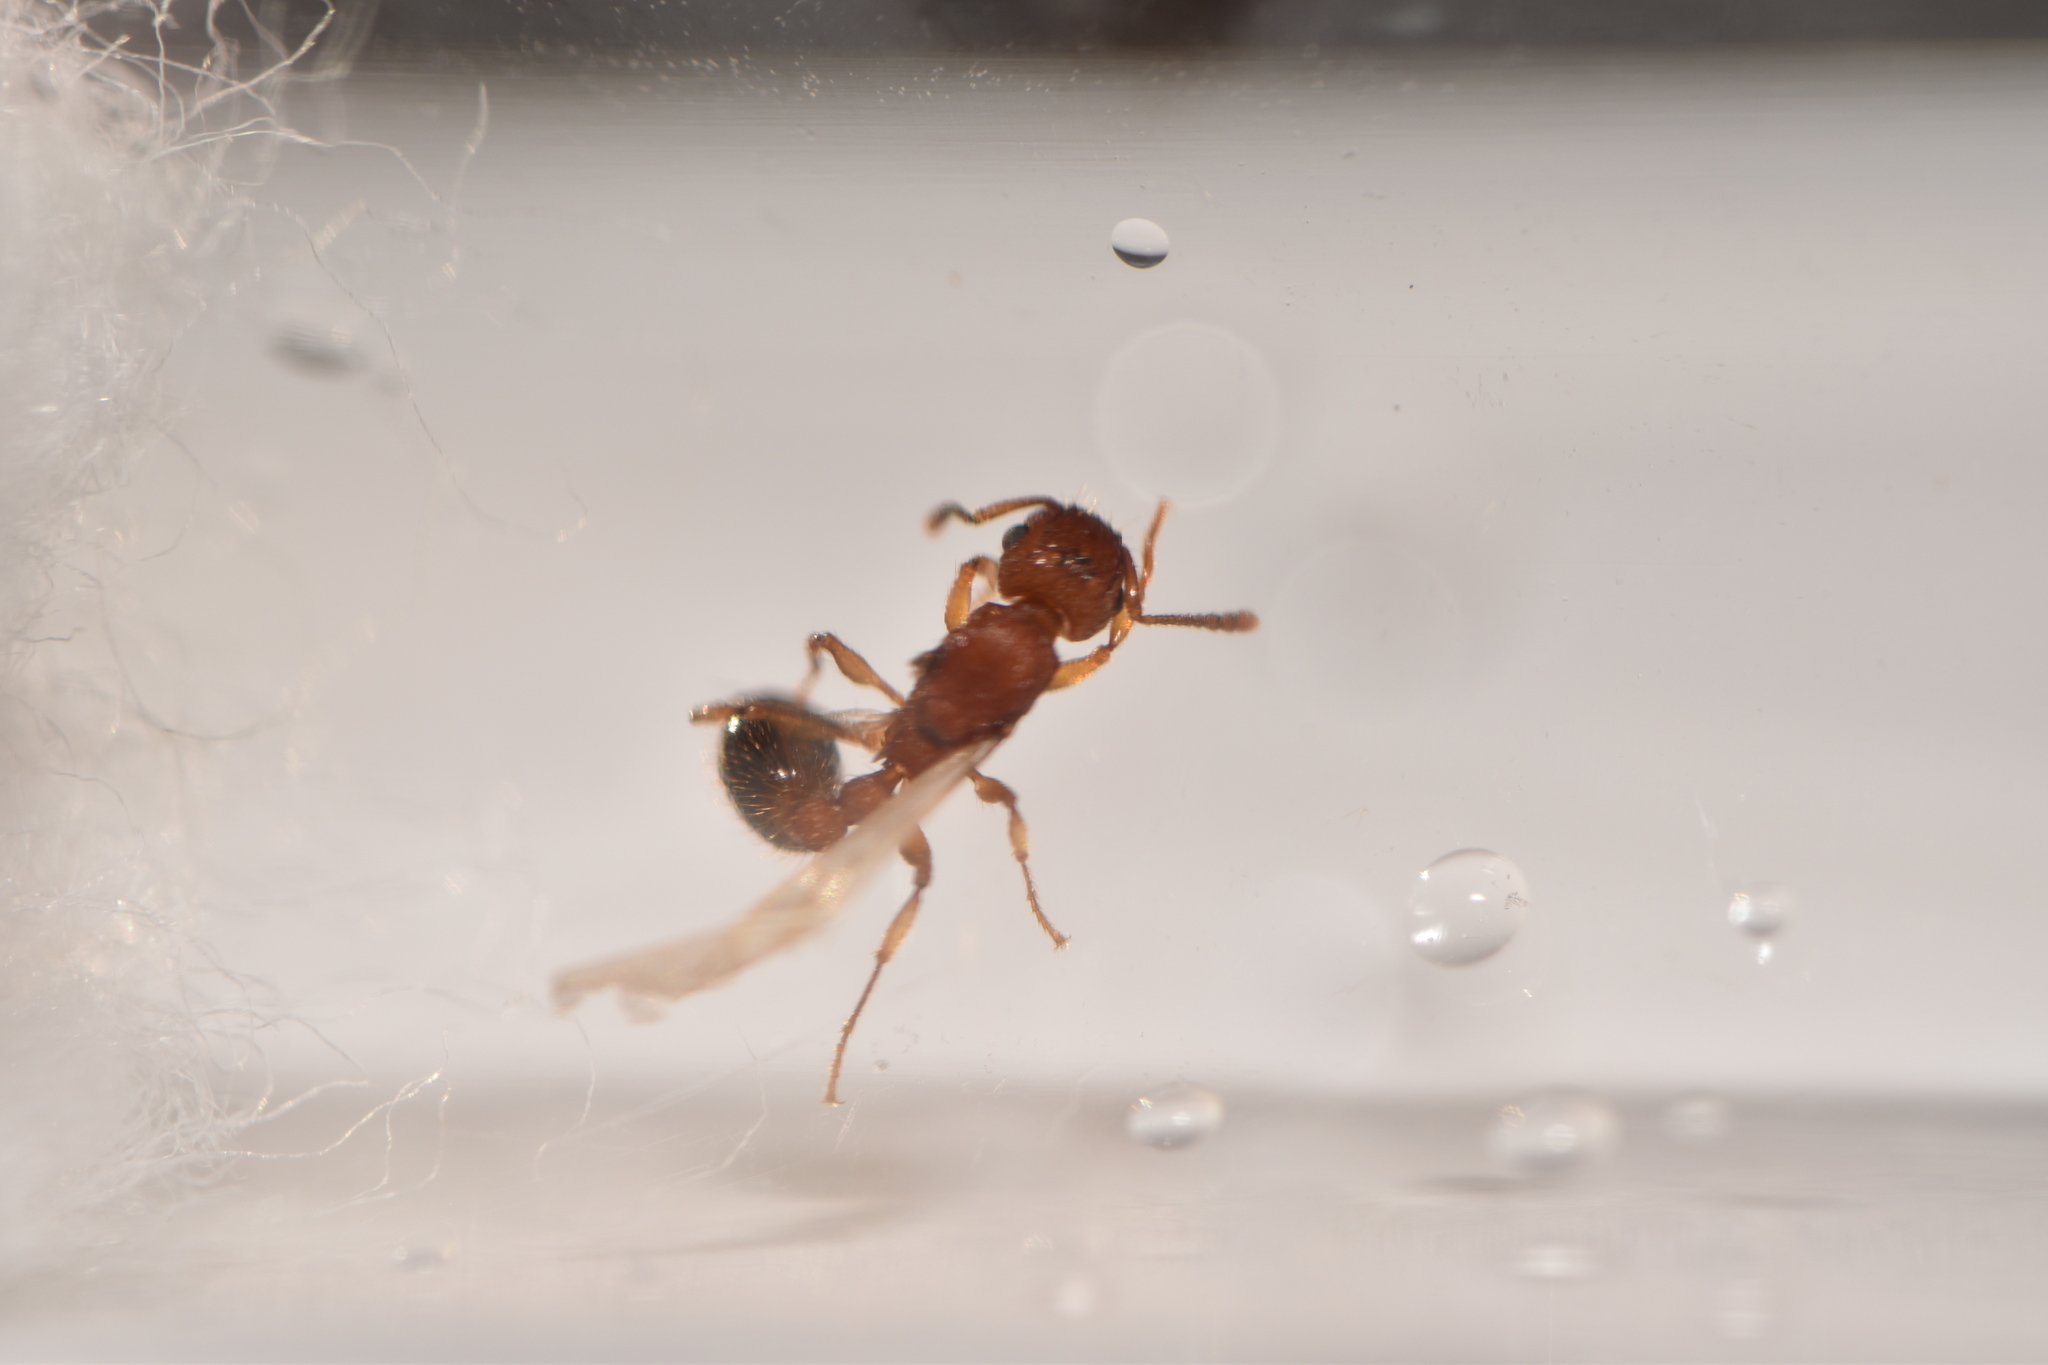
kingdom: Animalia
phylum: Arthropoda
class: Insecta
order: Hymenoptera
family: Formicidae
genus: Tetramorium
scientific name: Tetramorium bicarinatum
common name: Guinea ant
